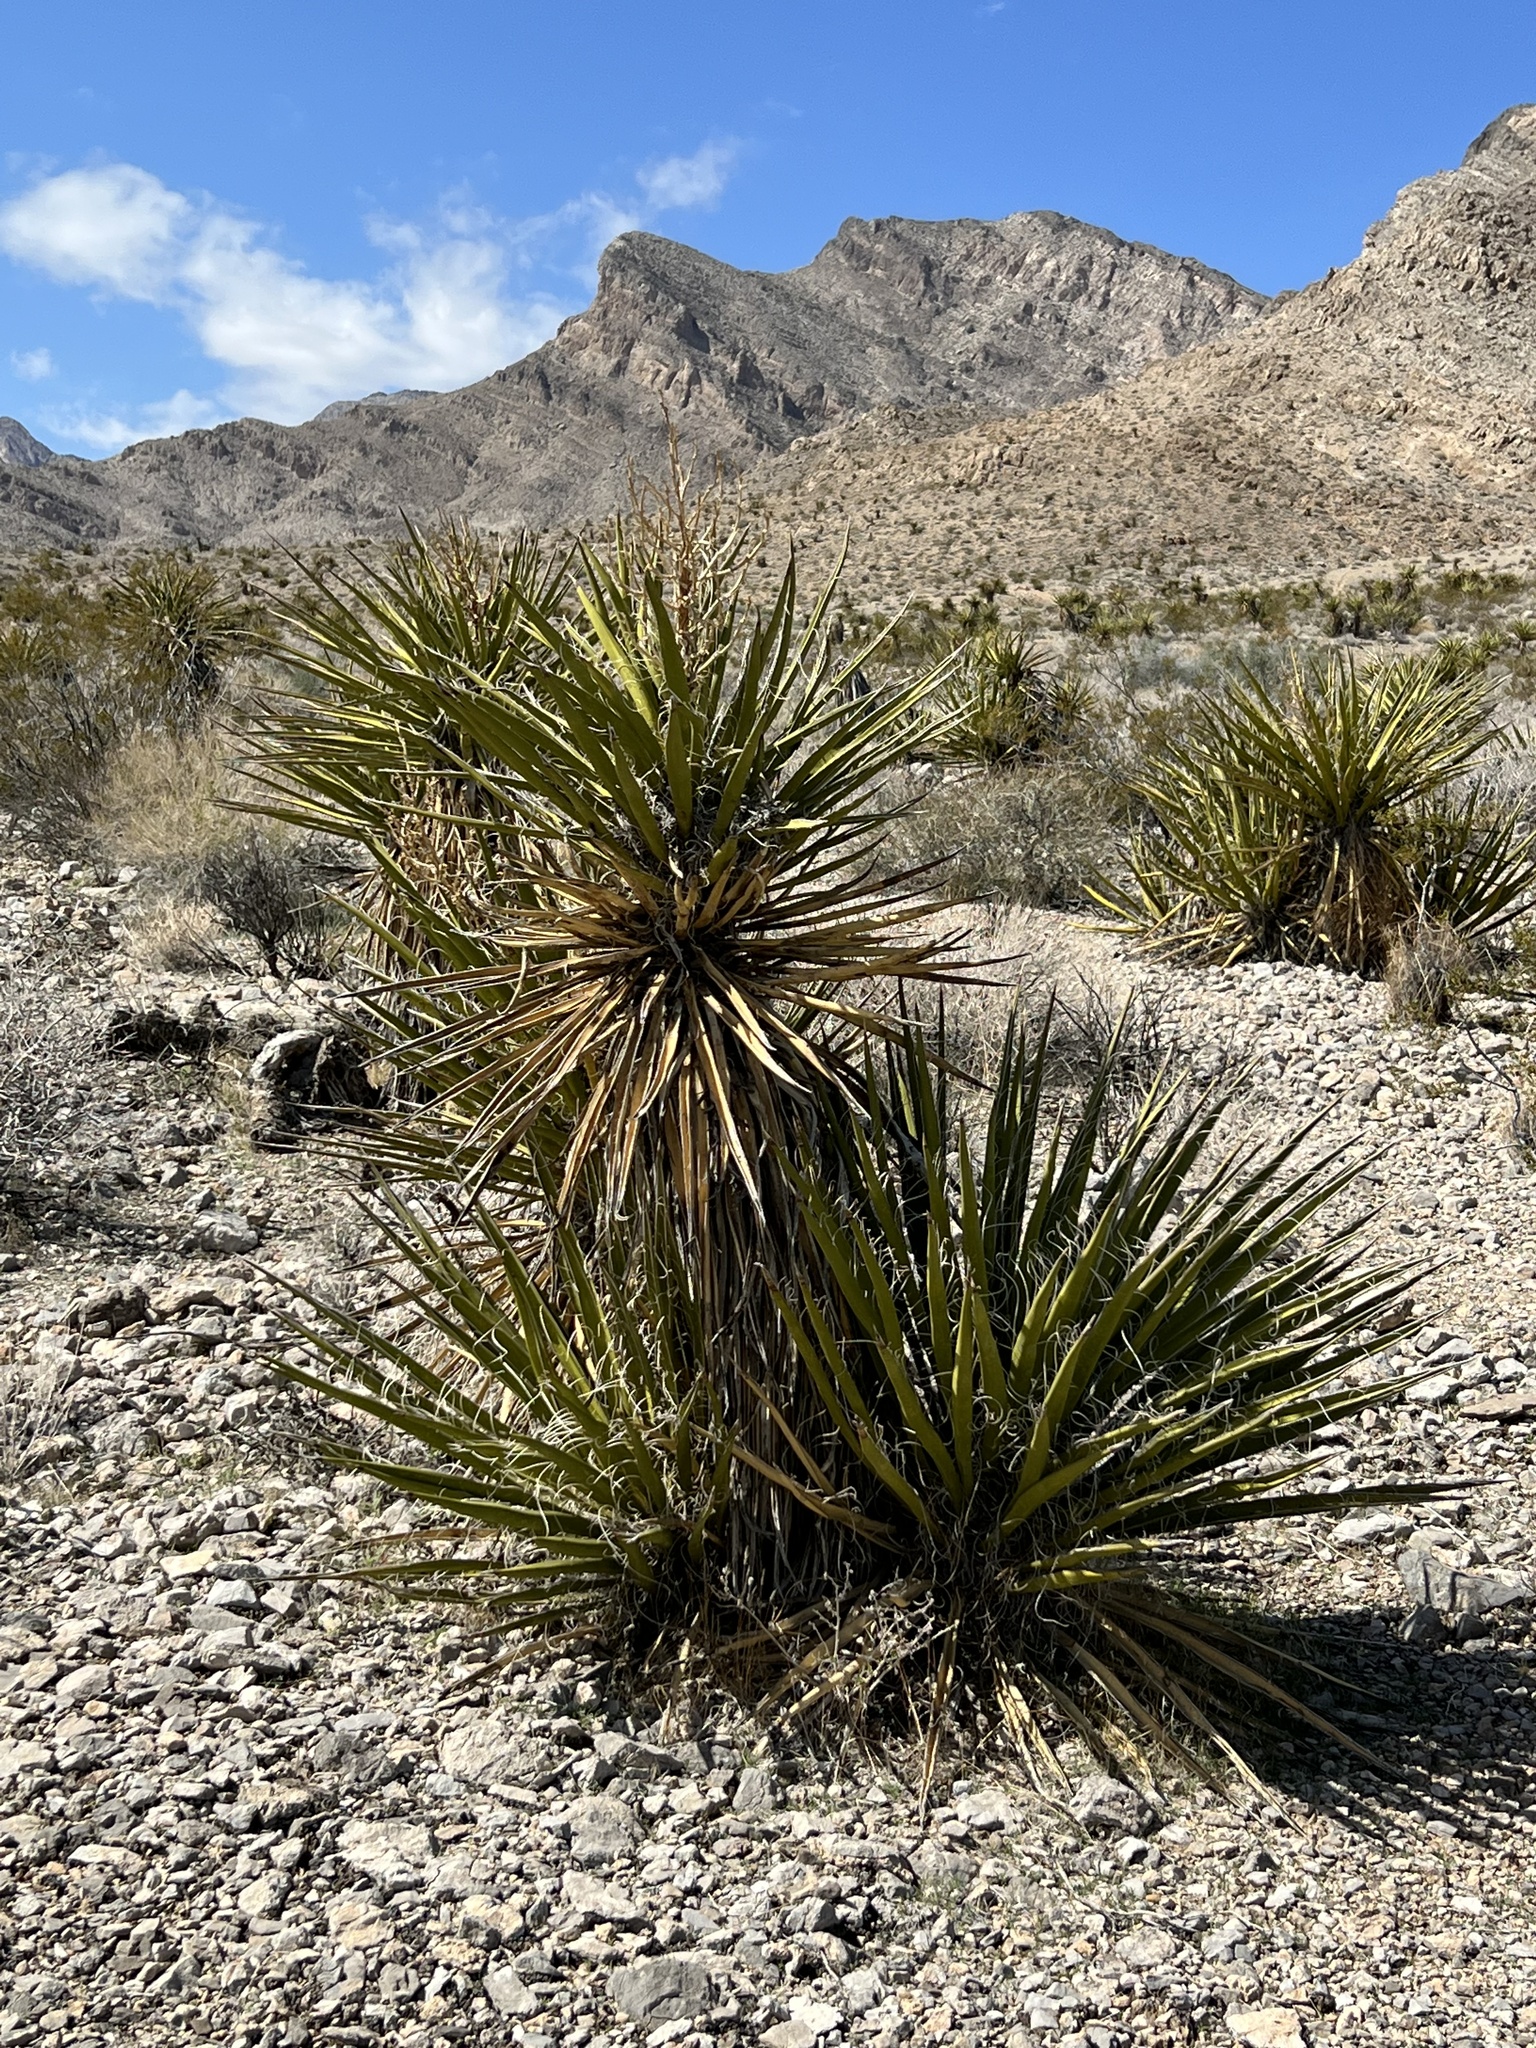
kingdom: Plantae
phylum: Tracheophyta
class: Liliopsida
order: Asparagales
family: Asparagaceae
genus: Yucca
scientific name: Yucca schidigera
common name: Mojave yucca
